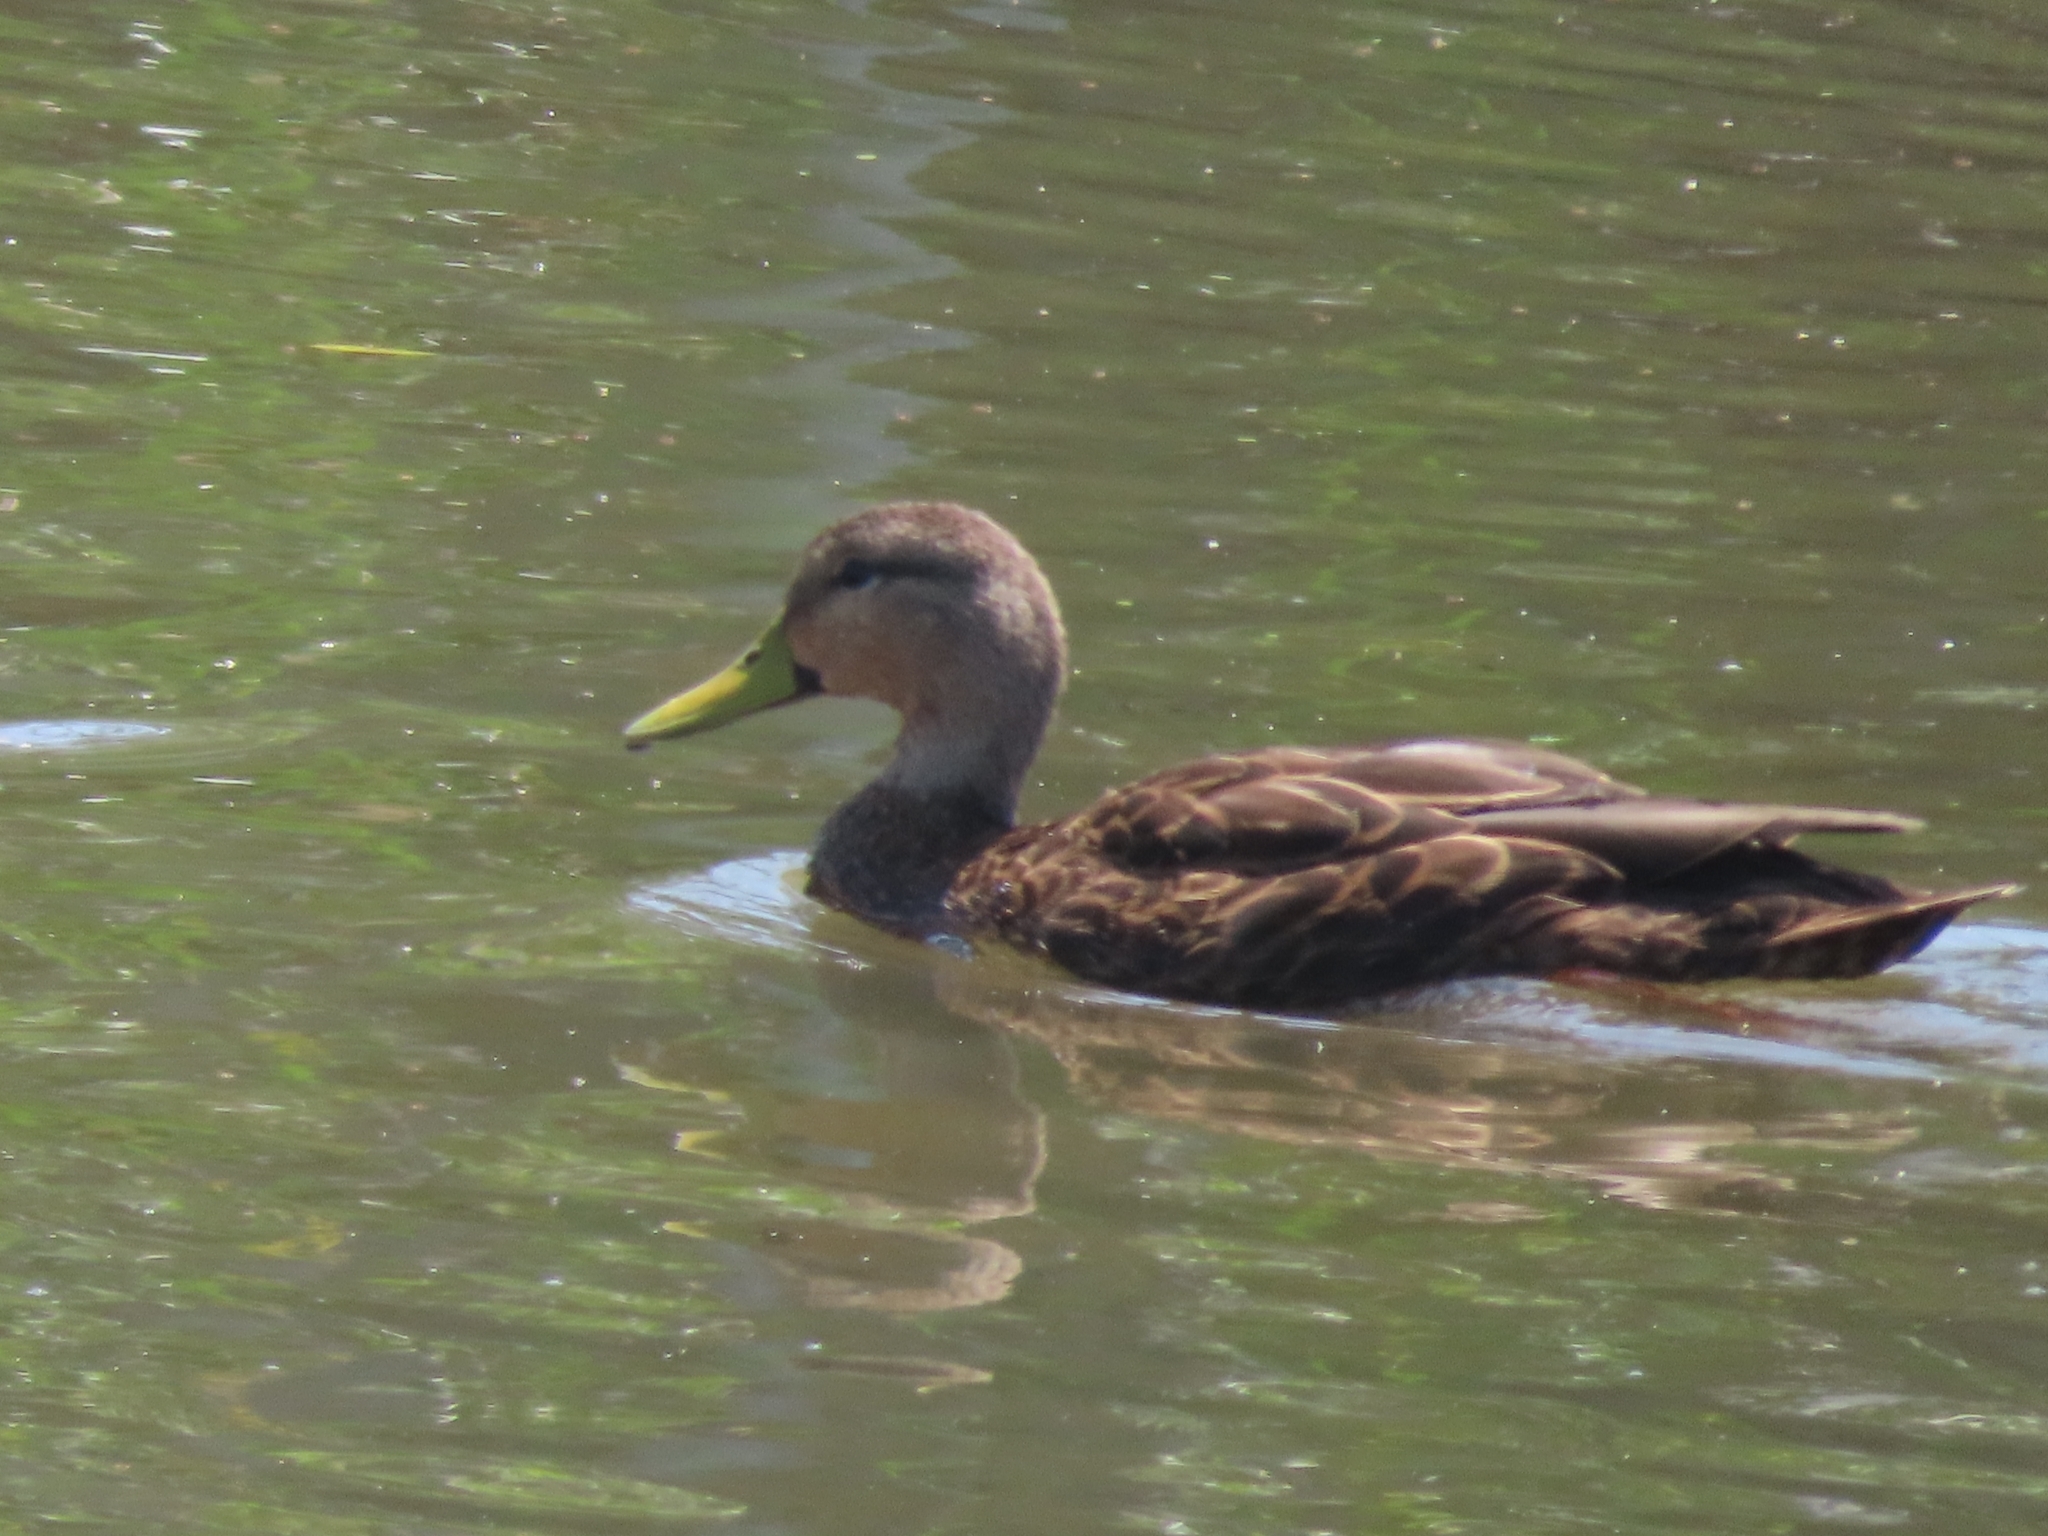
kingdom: Animalia
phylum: Chordata
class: Aves
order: Anseriformes
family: Anatidae
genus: Anas
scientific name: Anas fulvigula
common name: Mottled duck
